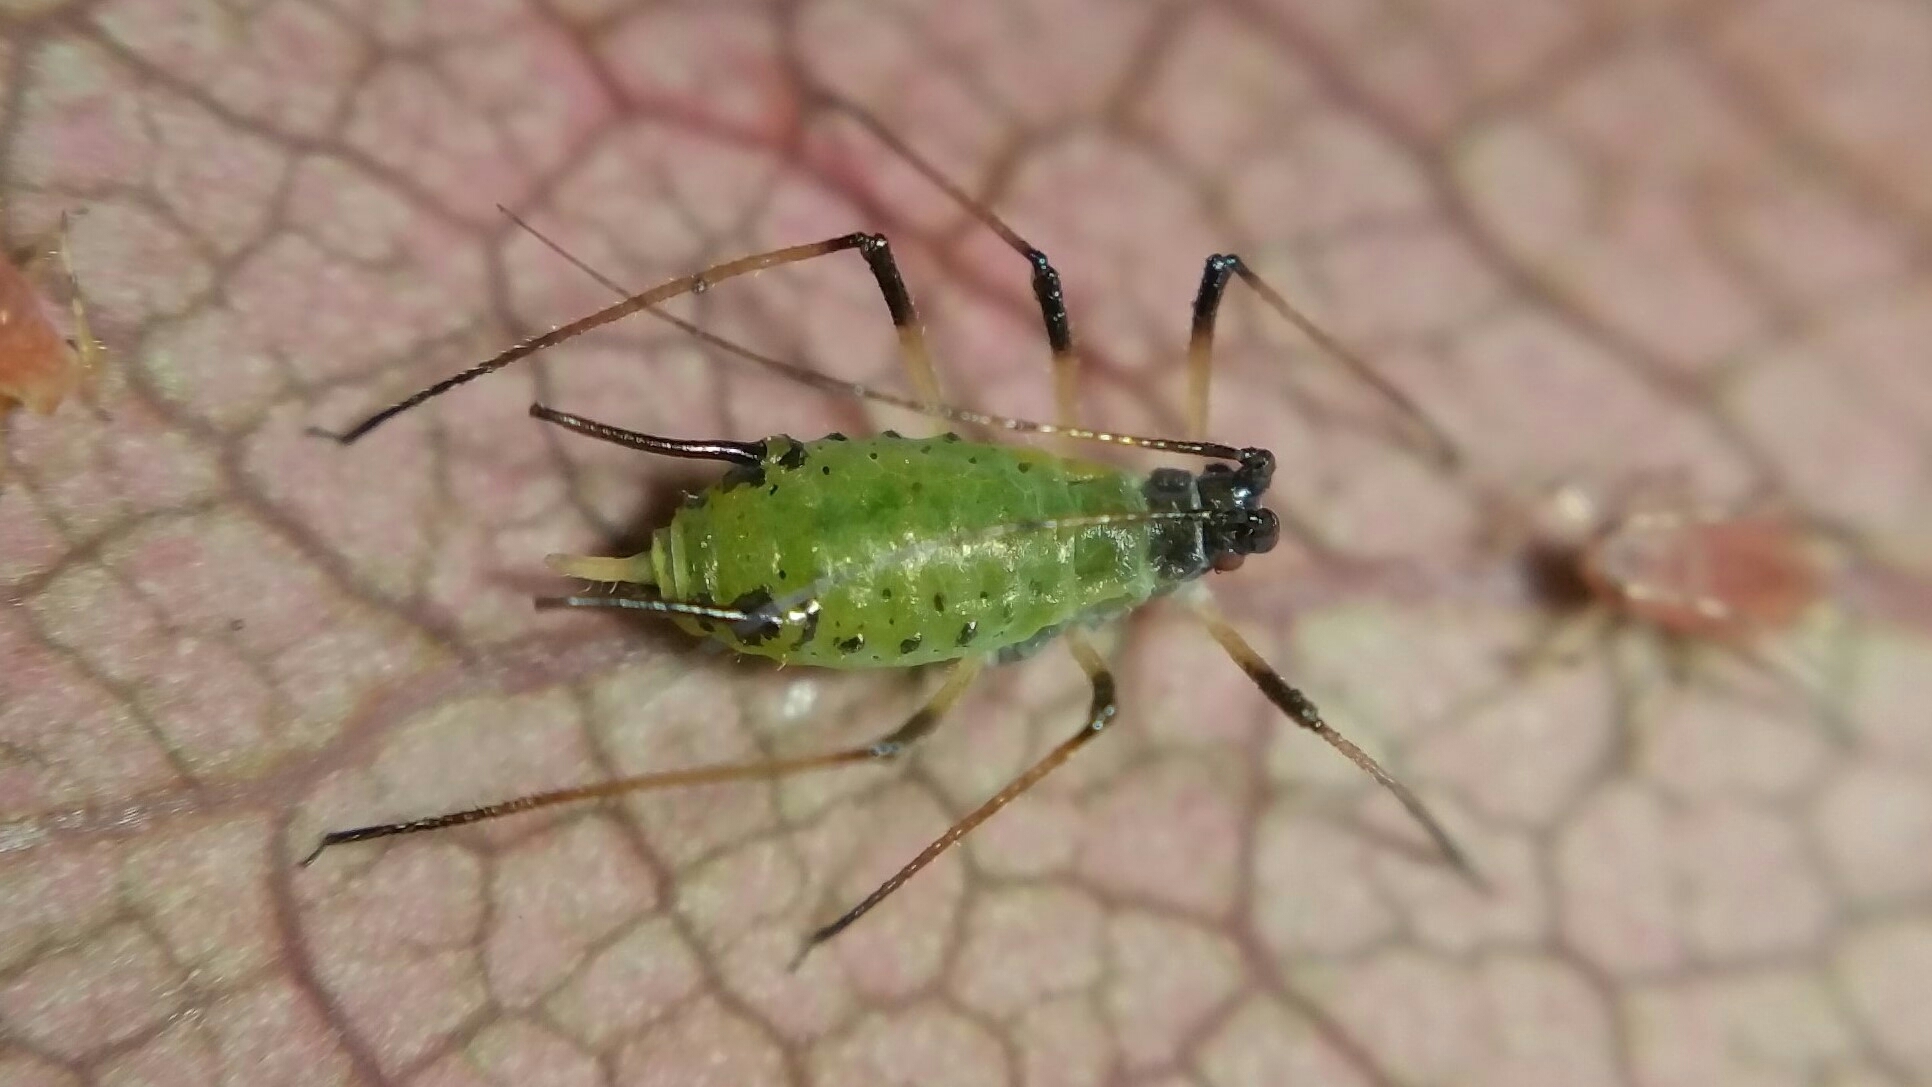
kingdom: Animalia
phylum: Arthropoda
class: Insecta
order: Hemiptera
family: Aphididae
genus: Macrosiphum
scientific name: Macrosiphum rosae
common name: Rose aphid
